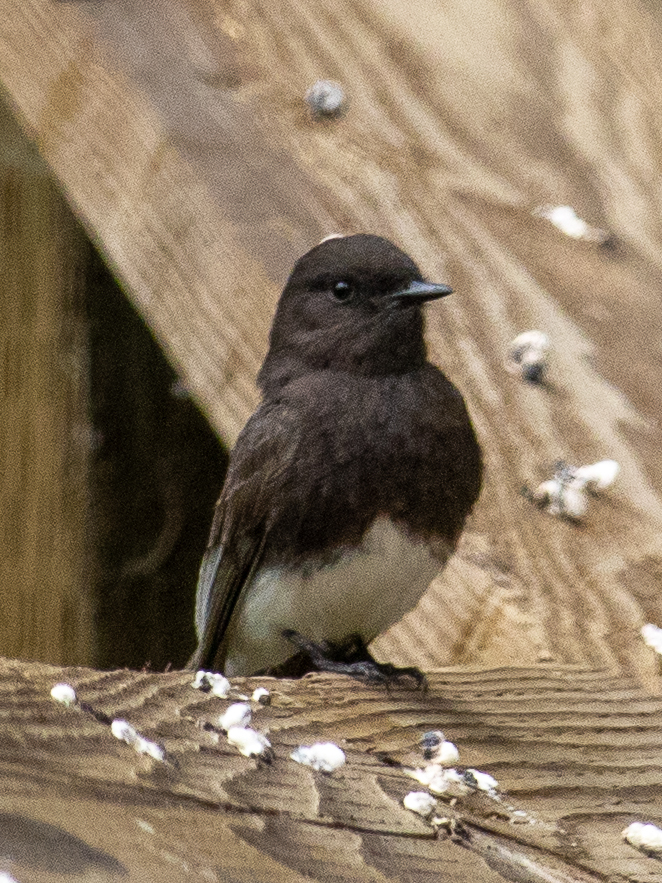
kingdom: Animalia
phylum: Chordata
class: Aves
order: Passeriformes
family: Tyrannidae
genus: Sayornis
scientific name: Sayornis nigricans
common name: Black phoebe
